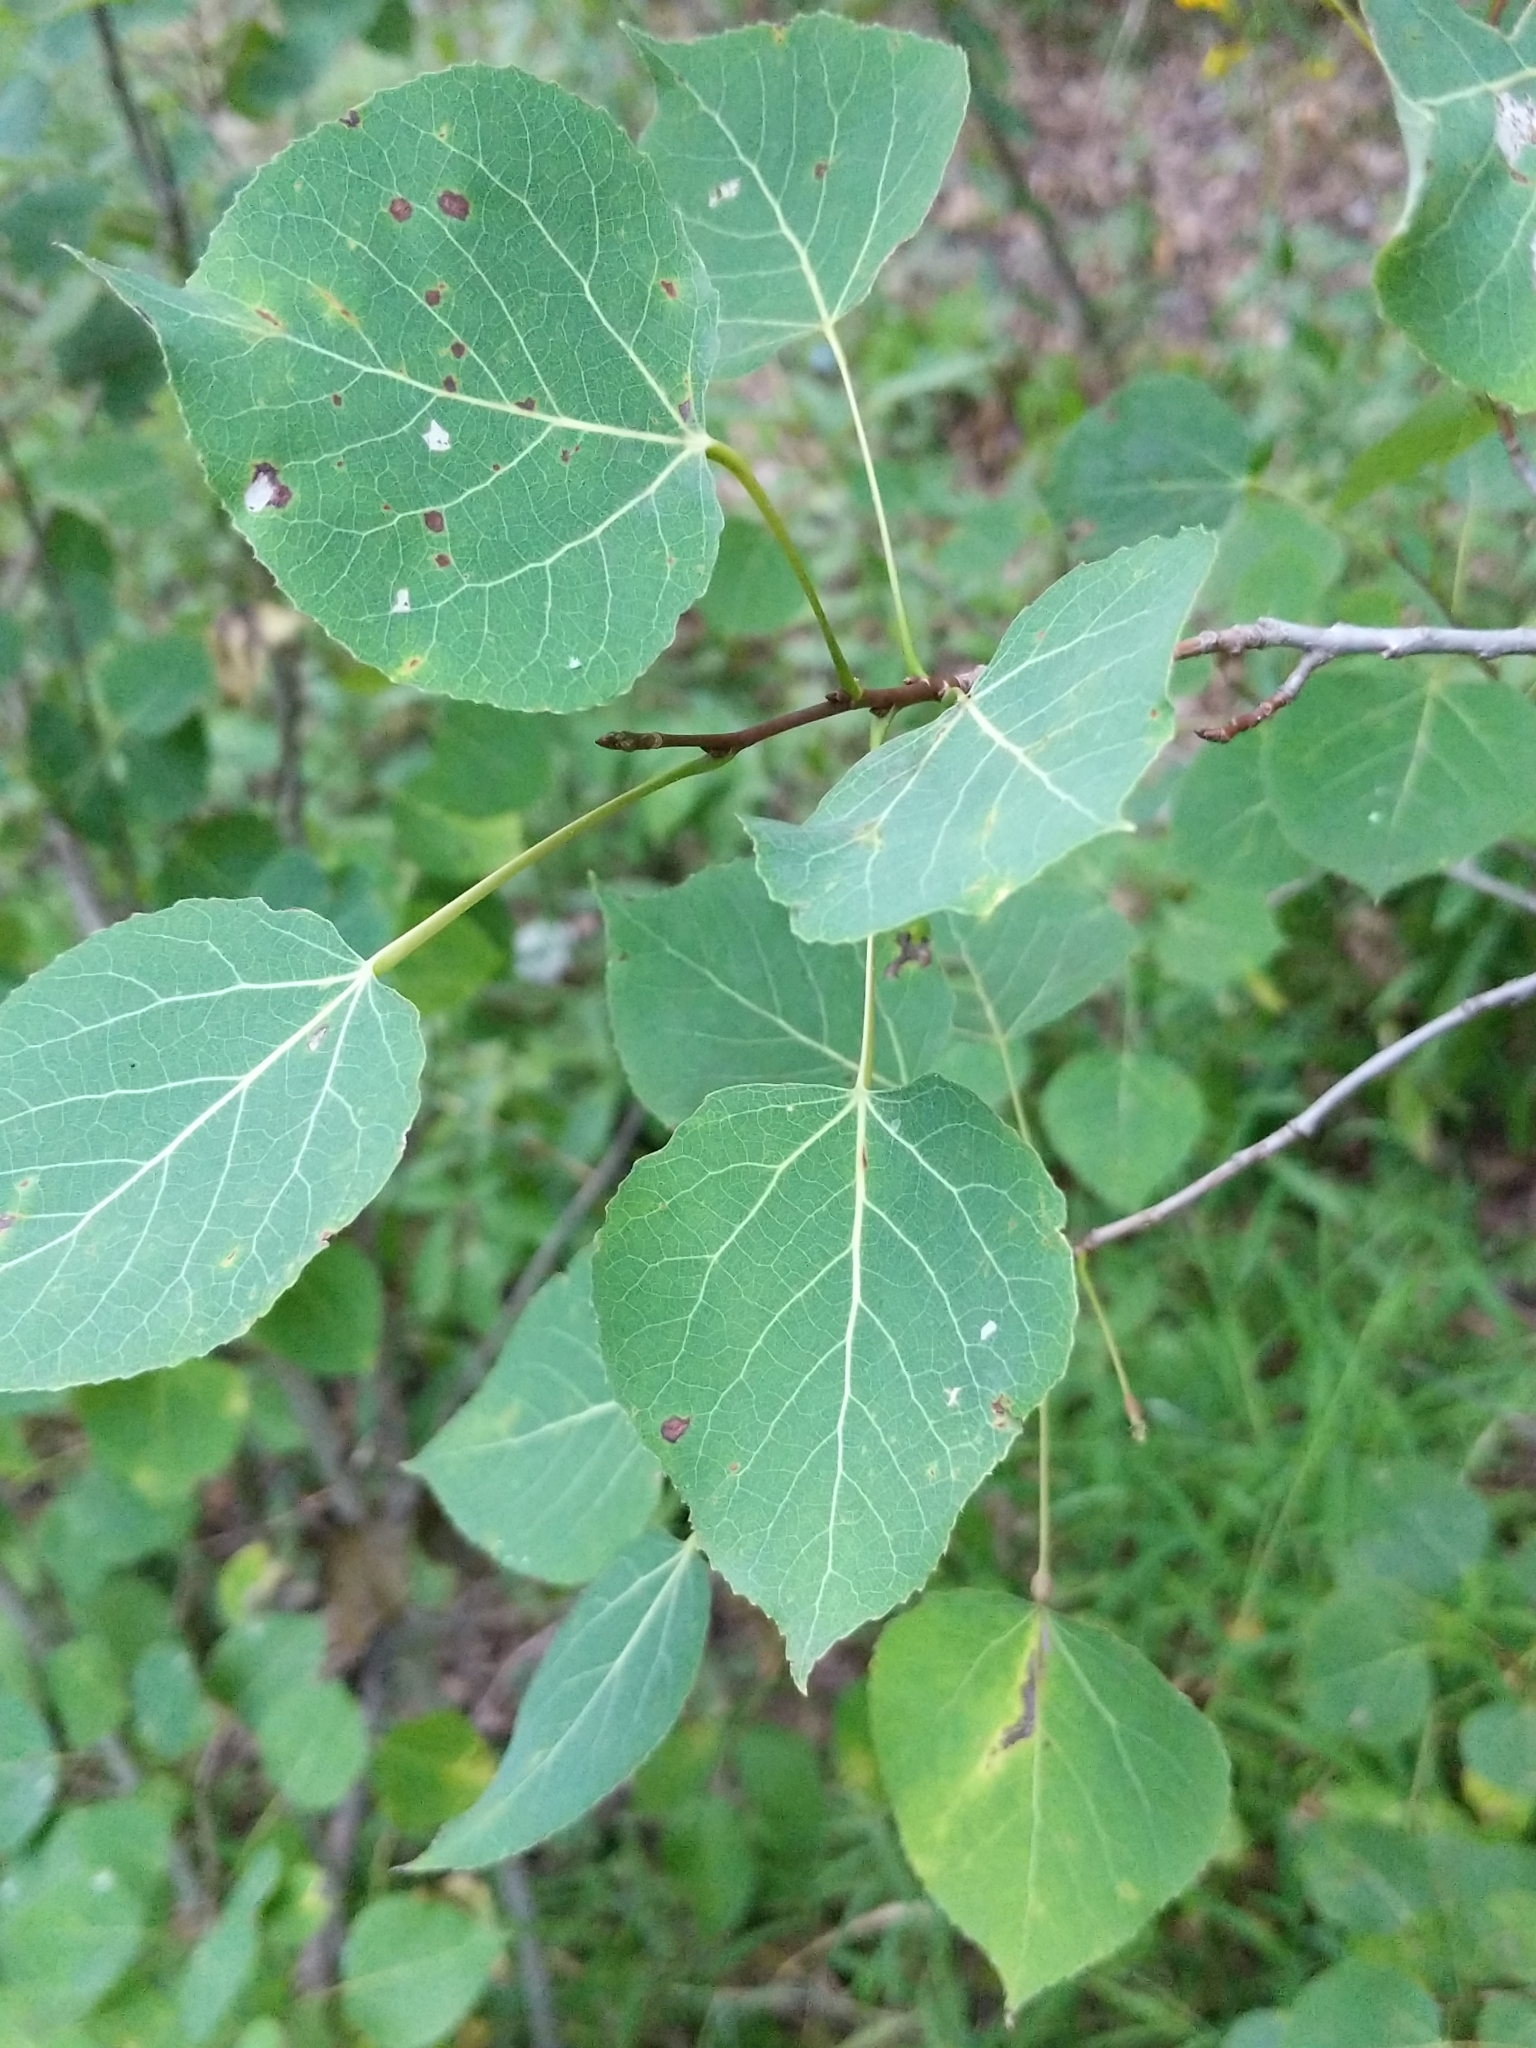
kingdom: Plantae
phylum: Tracheophyta
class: Magnoliopsida
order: Malpighiales
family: Salicaceae
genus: Populus
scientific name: Populus tremuloides
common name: Quaking aspen
